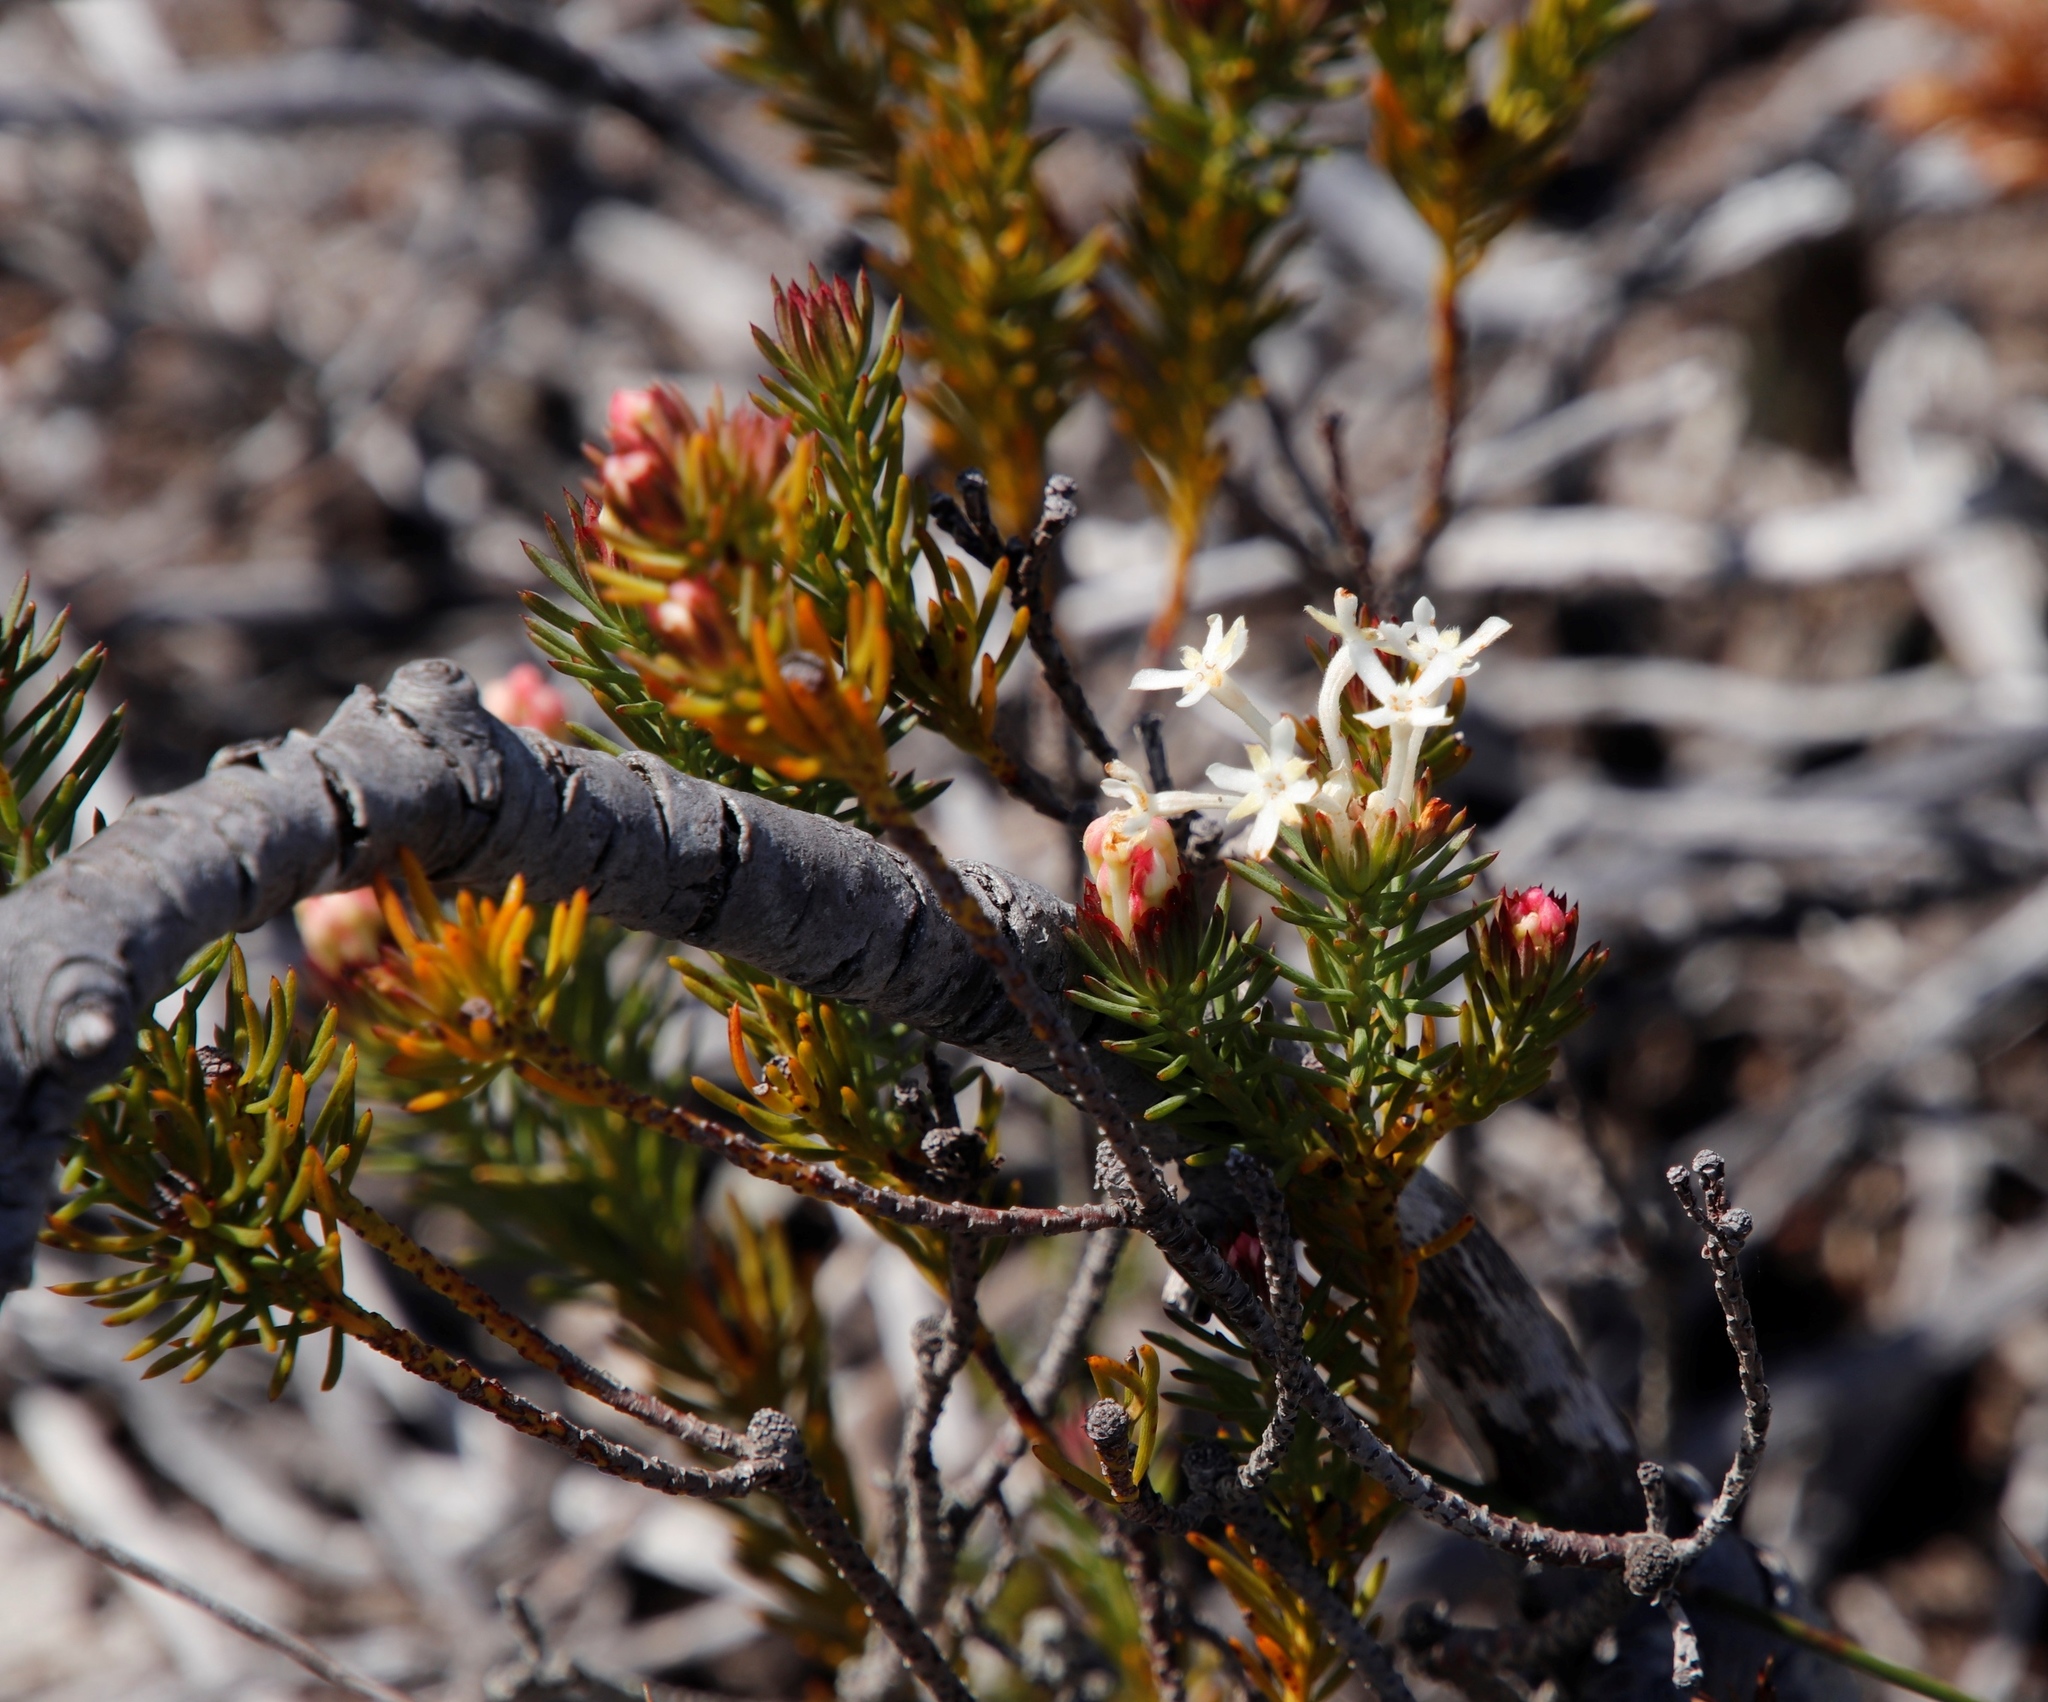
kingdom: Plantae
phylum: Tracheophyta
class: Magnoliopsida
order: Malvales
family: Thymelaeaceae
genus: Gnidia
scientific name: Gnidia pinifolia
